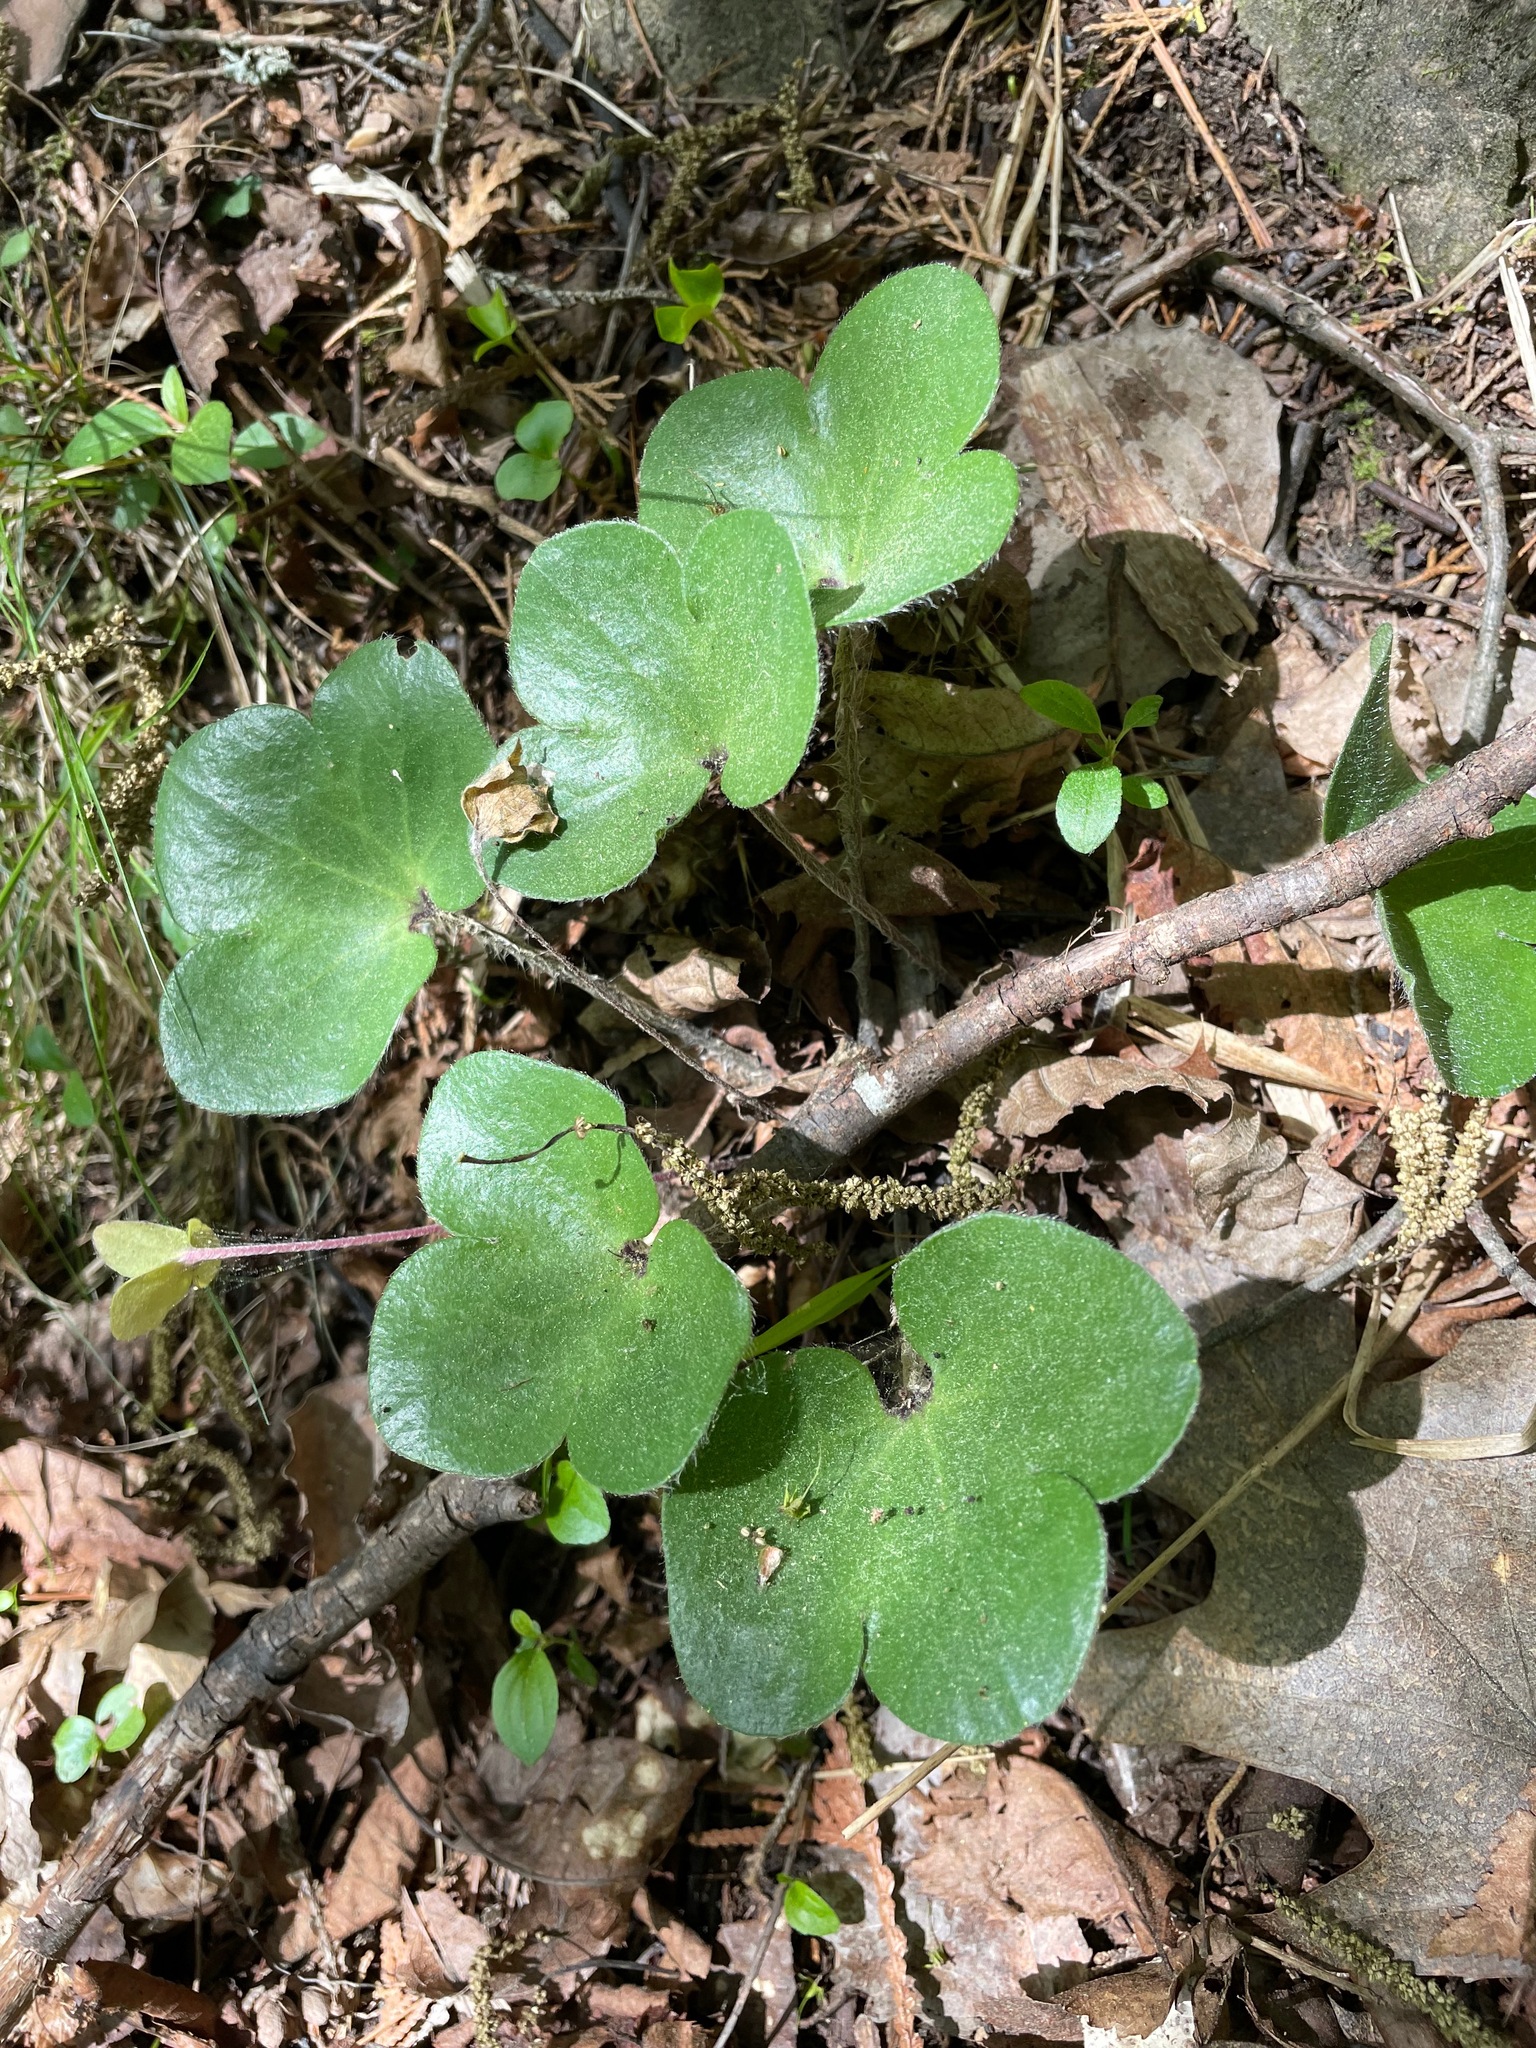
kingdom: Plantae
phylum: Tracheophyta
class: Magnoliopsida
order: Ranunculales
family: Ranunculaceae
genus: Hepatica
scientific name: Hepatica americana
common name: American hepatica
